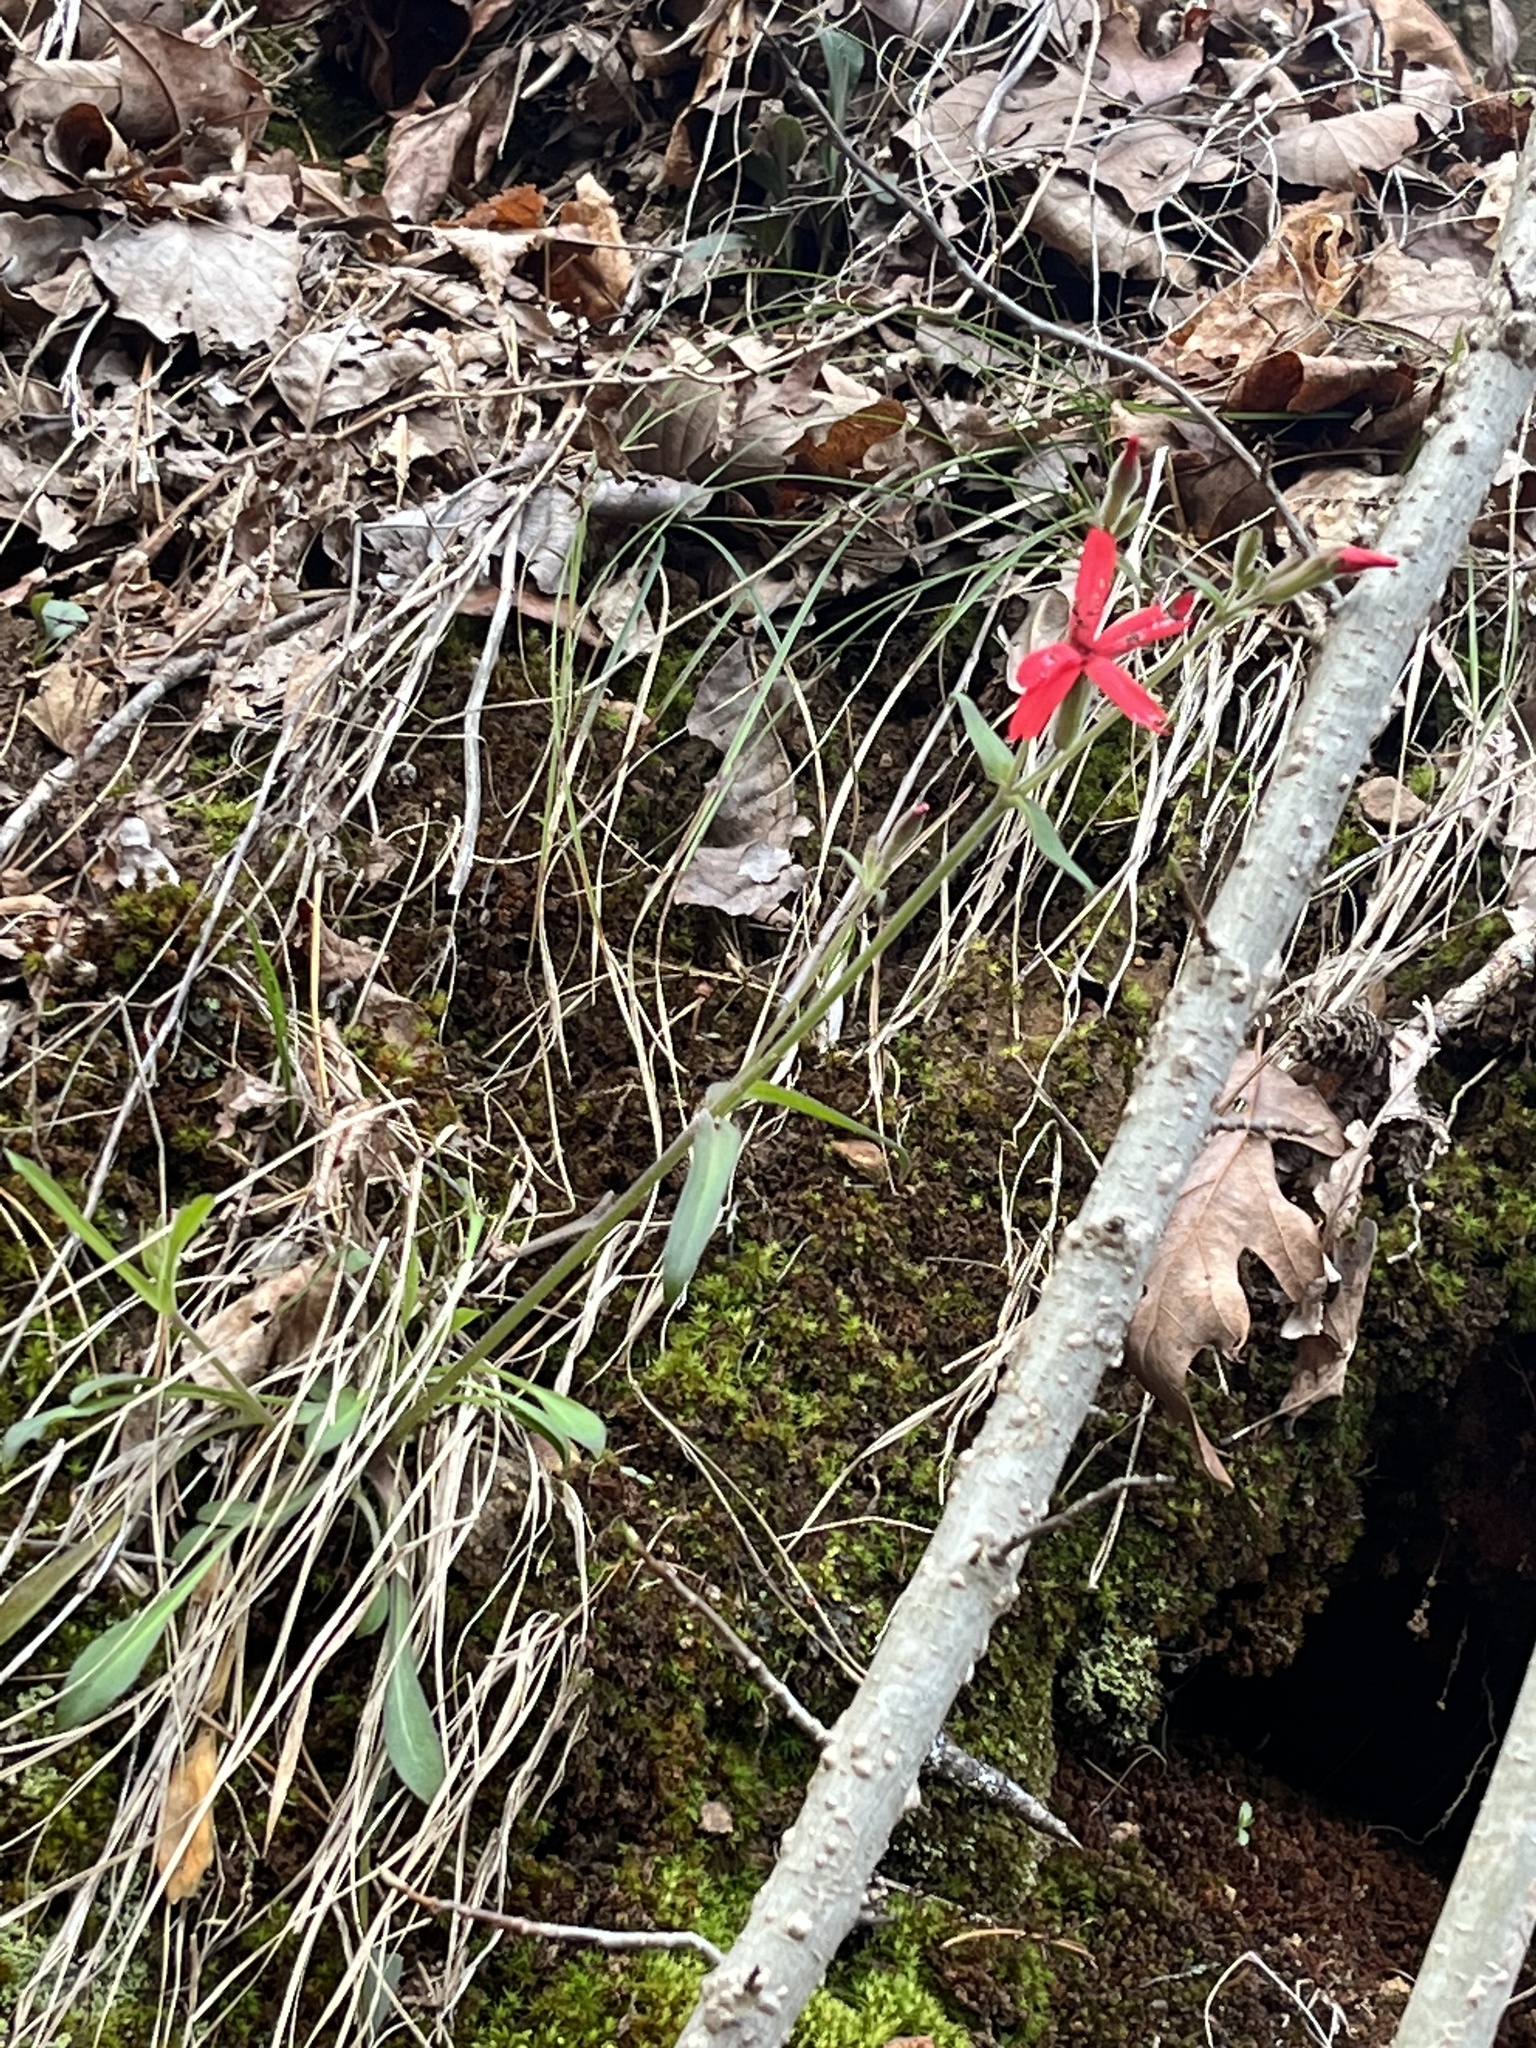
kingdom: Plantae
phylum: Tracheophyta
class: Magnoliopsida
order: Caryophyllales
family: Caryophyllaceae
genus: Silene
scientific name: Silene virginica
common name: Fire-pink
